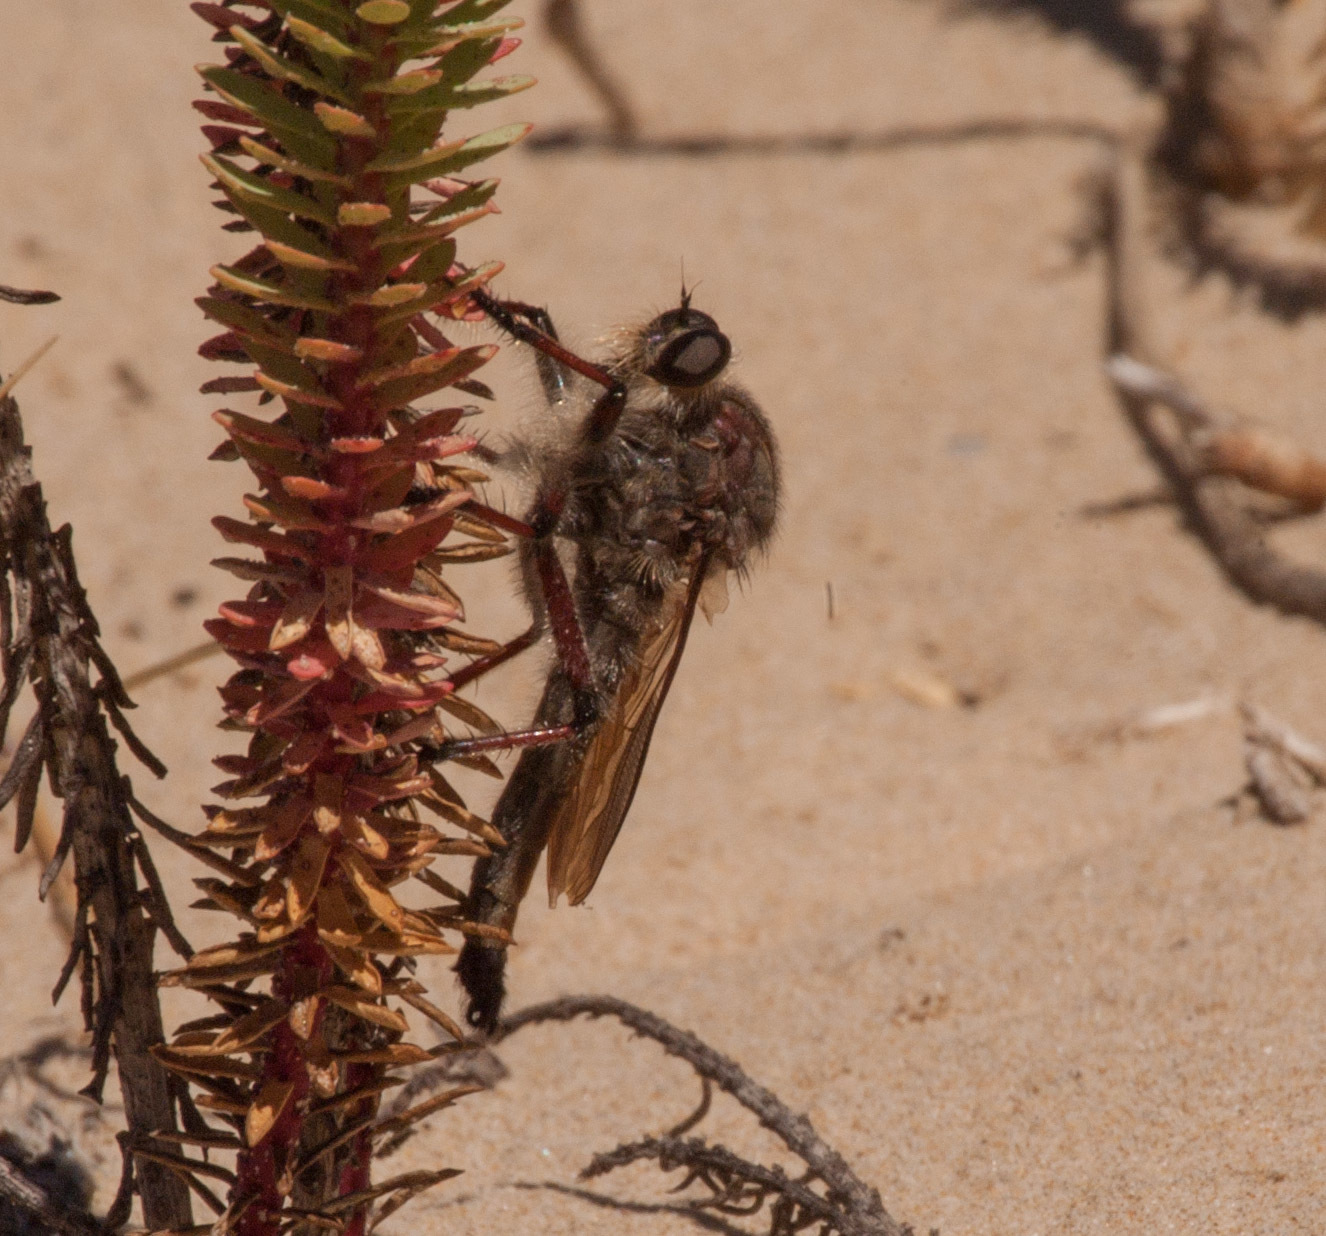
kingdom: Animalia
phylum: Arthropoda
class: Insecta
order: Diptera
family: Asilidae
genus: Neoaratus
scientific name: Neoaratus hercules
